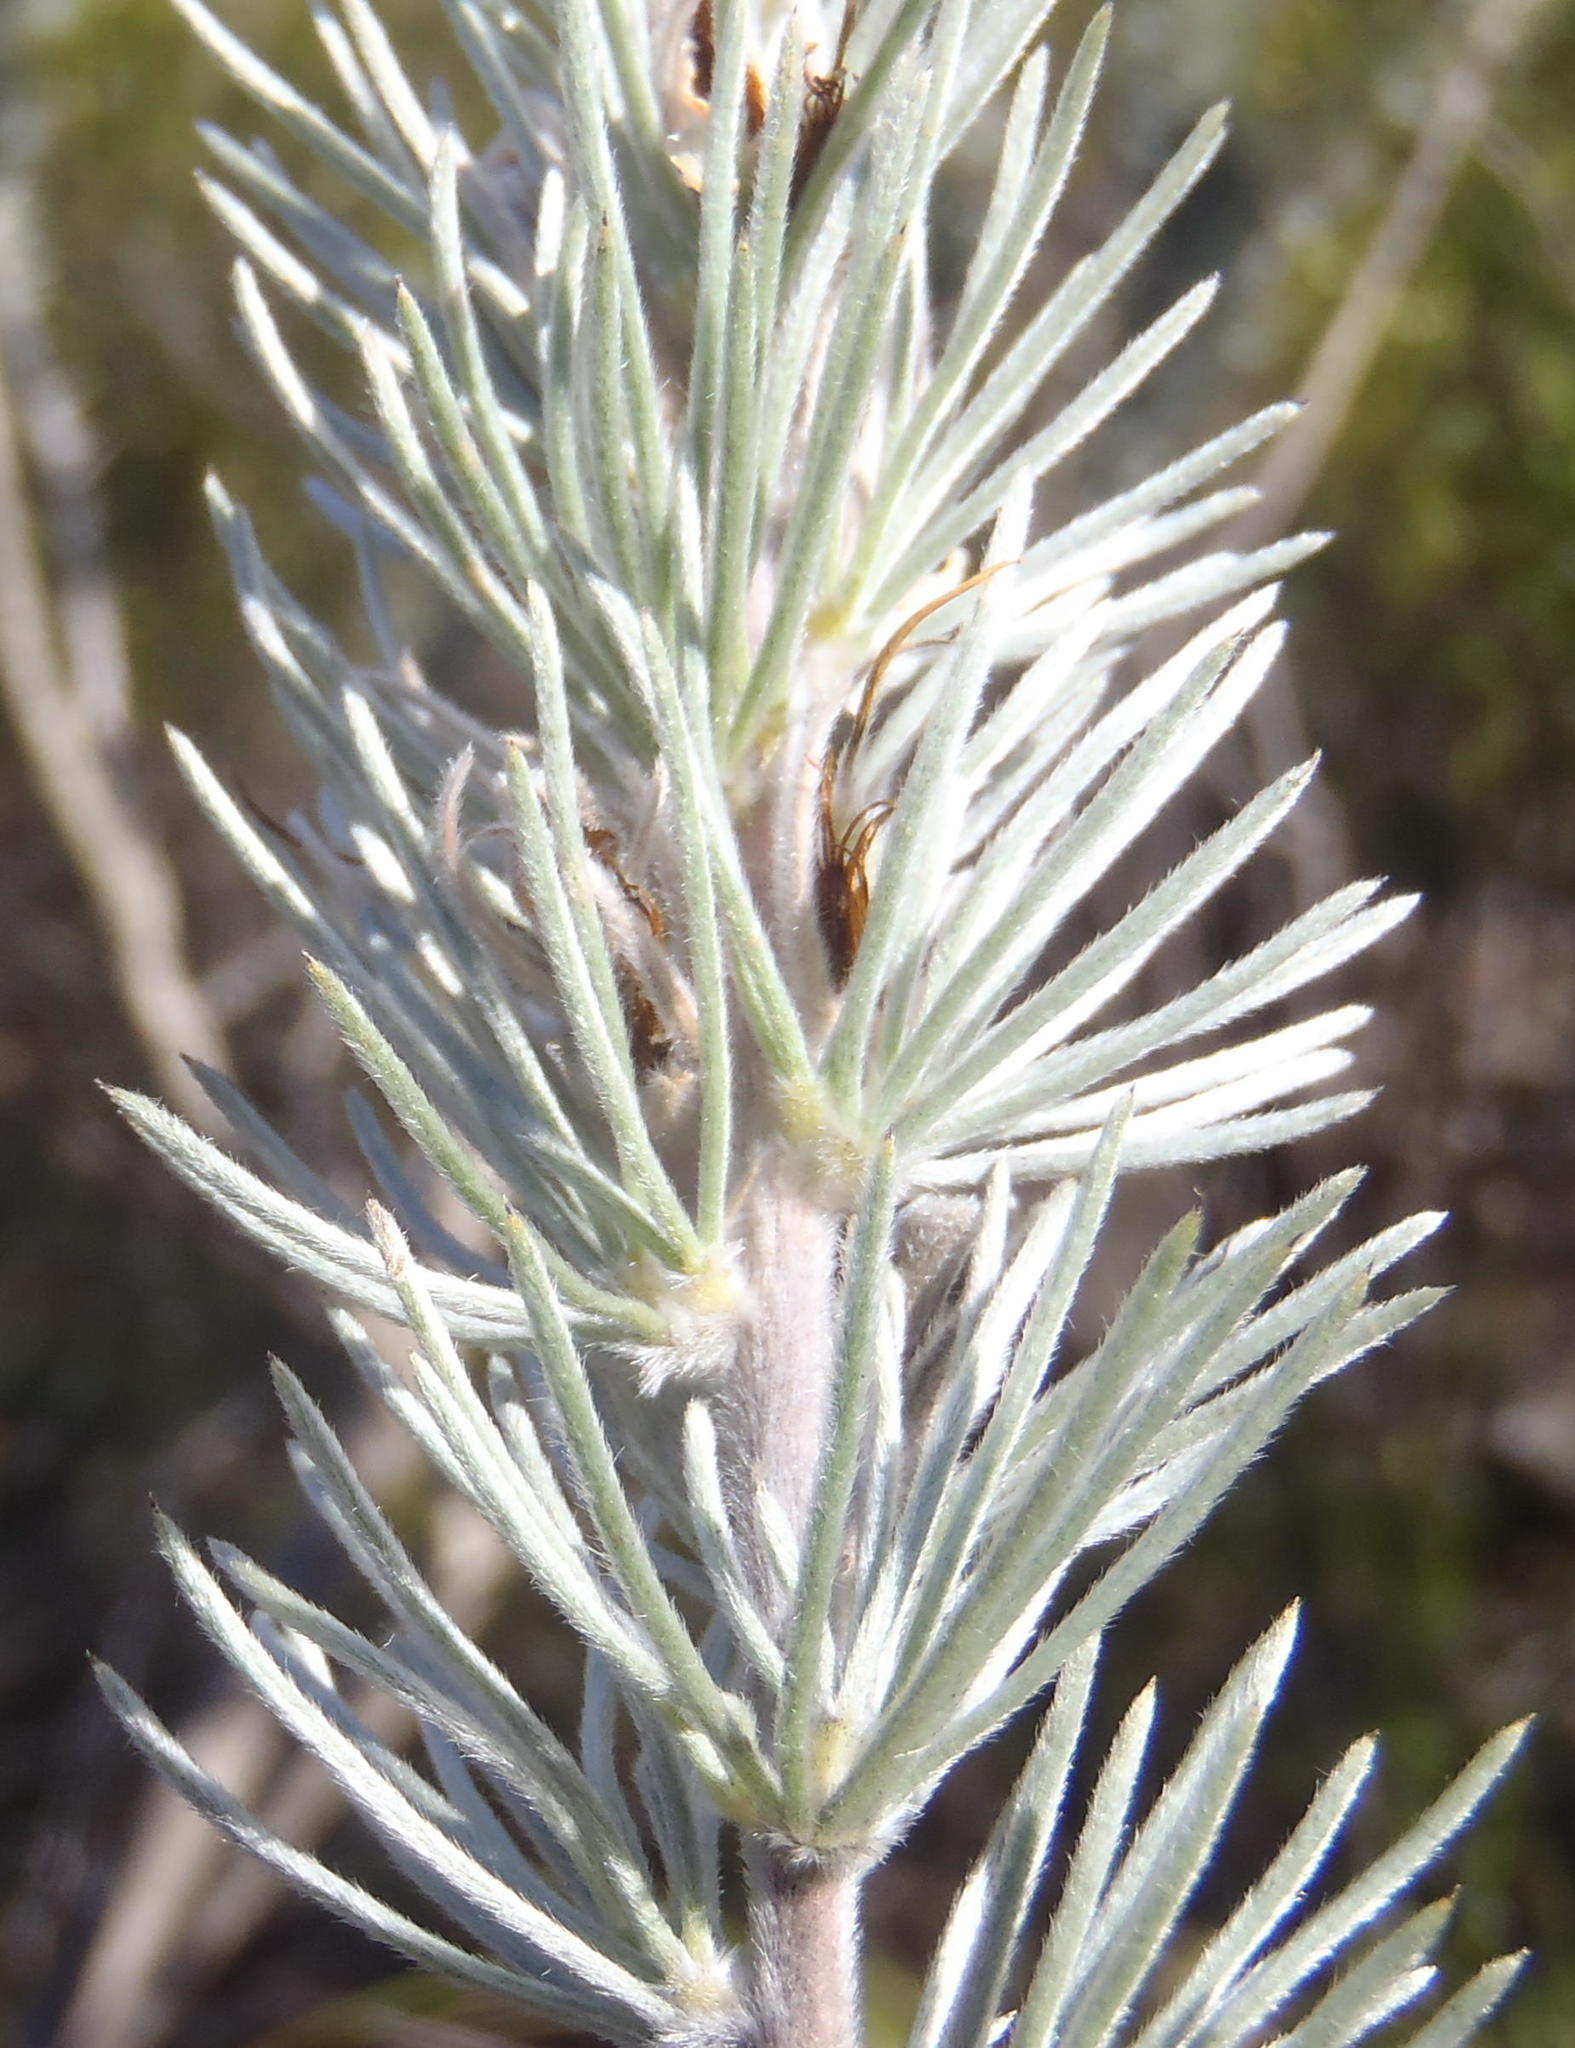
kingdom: Plantae
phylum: Tracheophyta
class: Magnoliopsida
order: Fabales
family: Fabaceae
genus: Aspalathus
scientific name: Aspalathus setacea
